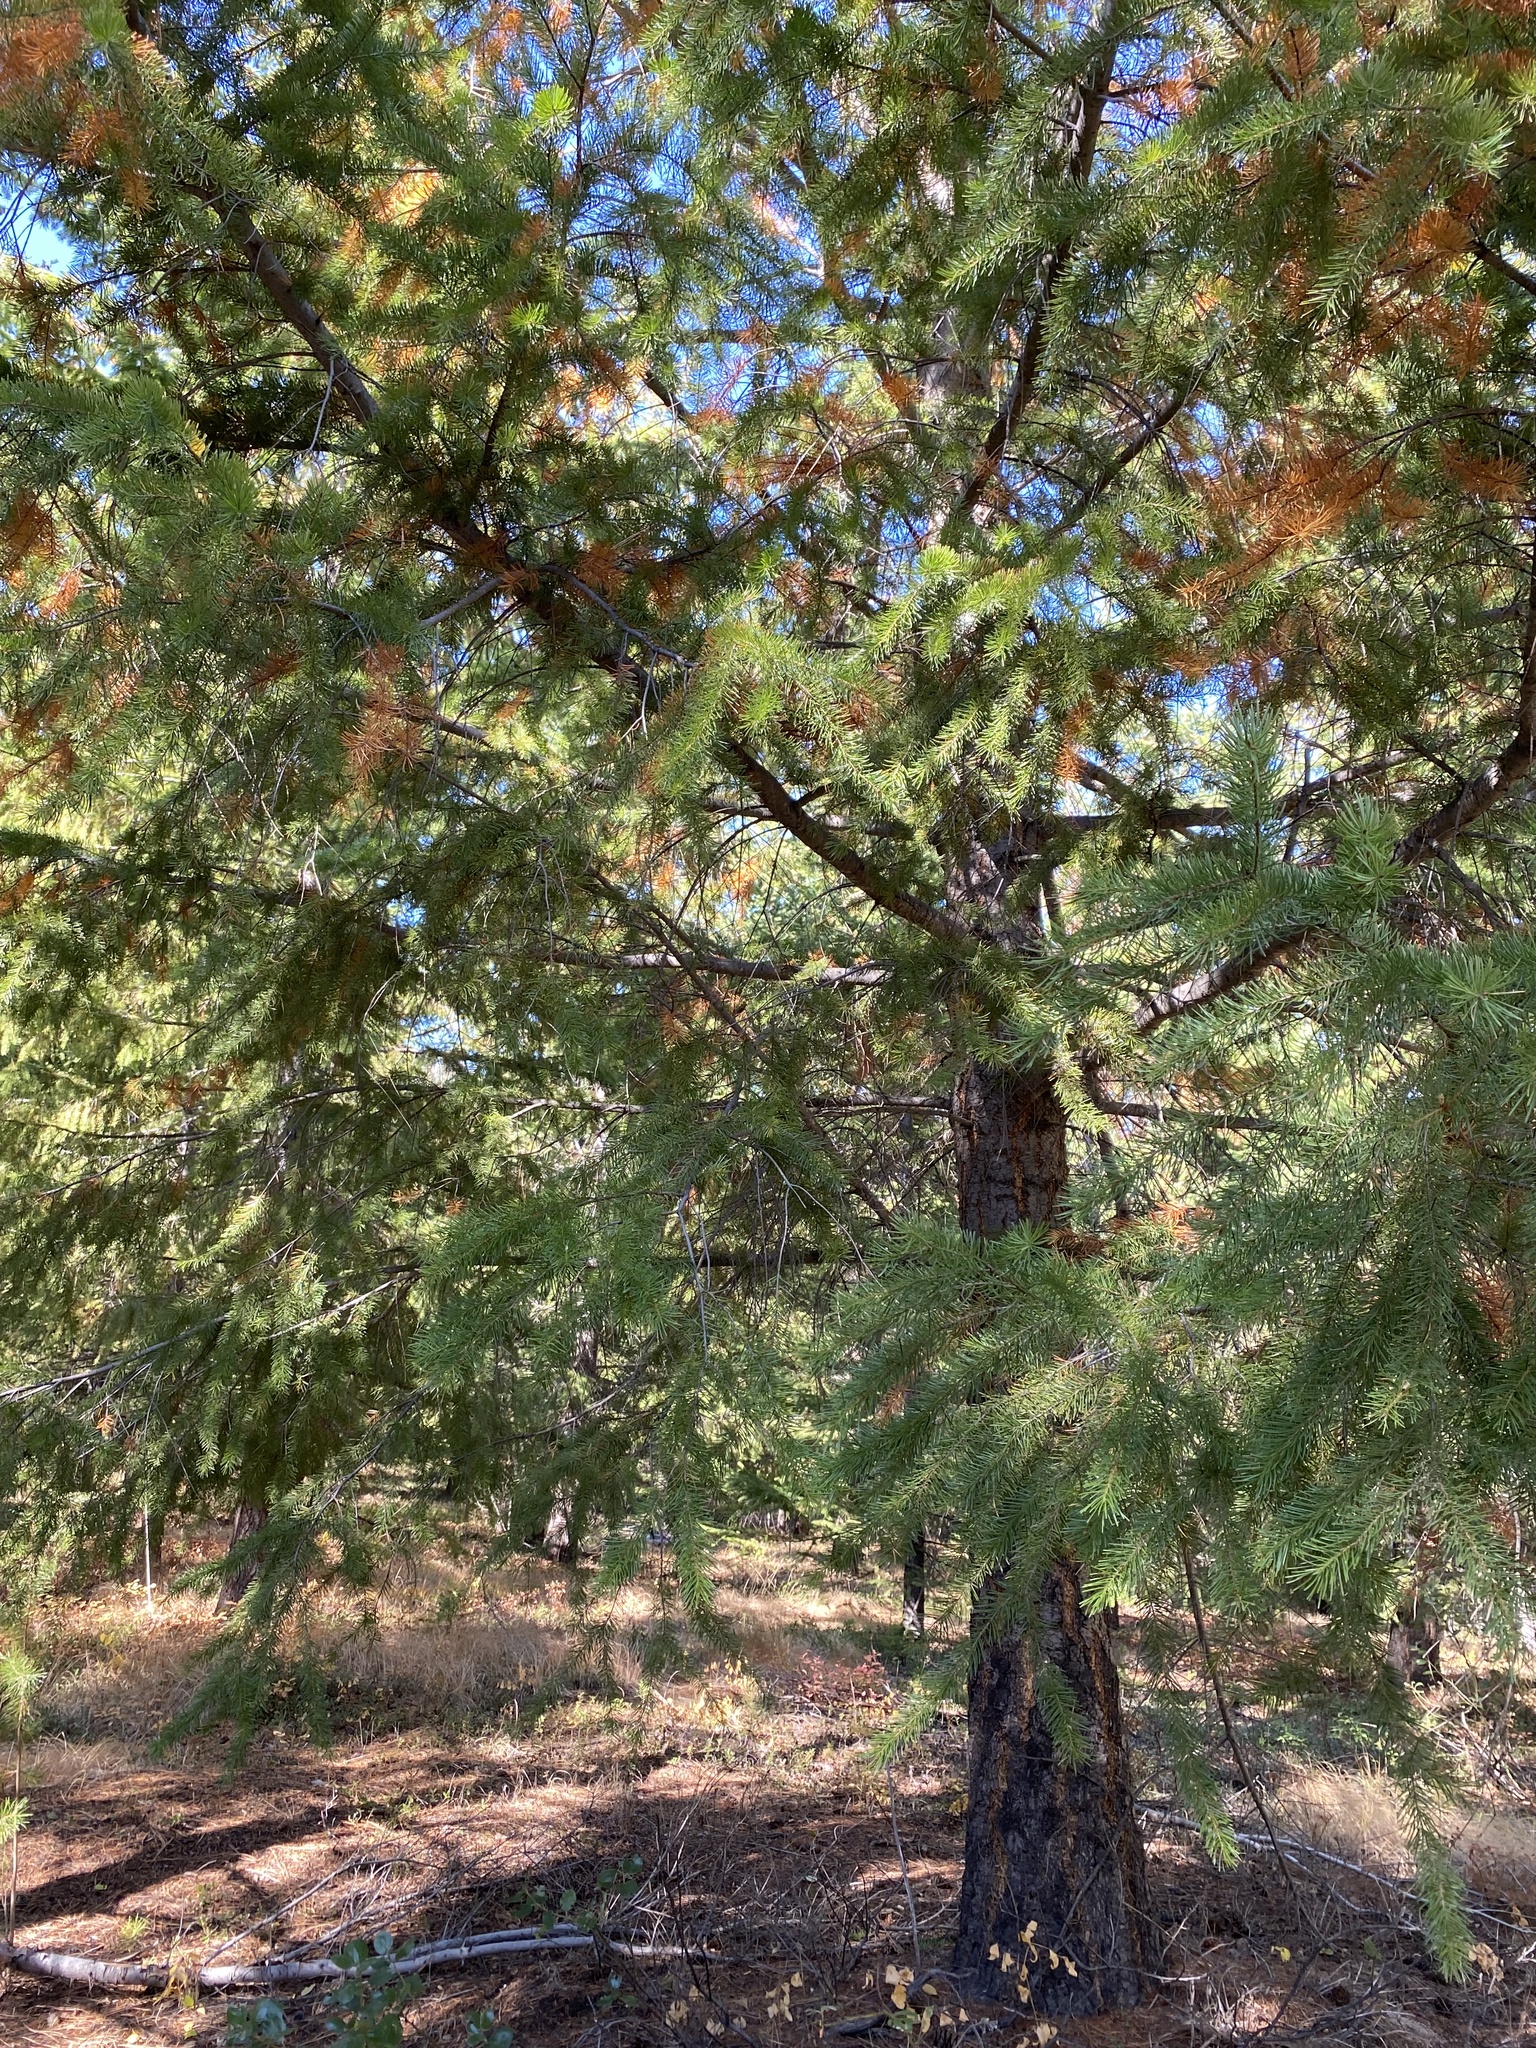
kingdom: Plantae
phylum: Tracheophyta
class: Pinopsida
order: Pinales
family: Pinaceae
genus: Pseudotsuga
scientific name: Pseudotsuga menziesii
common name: Douglas fir
